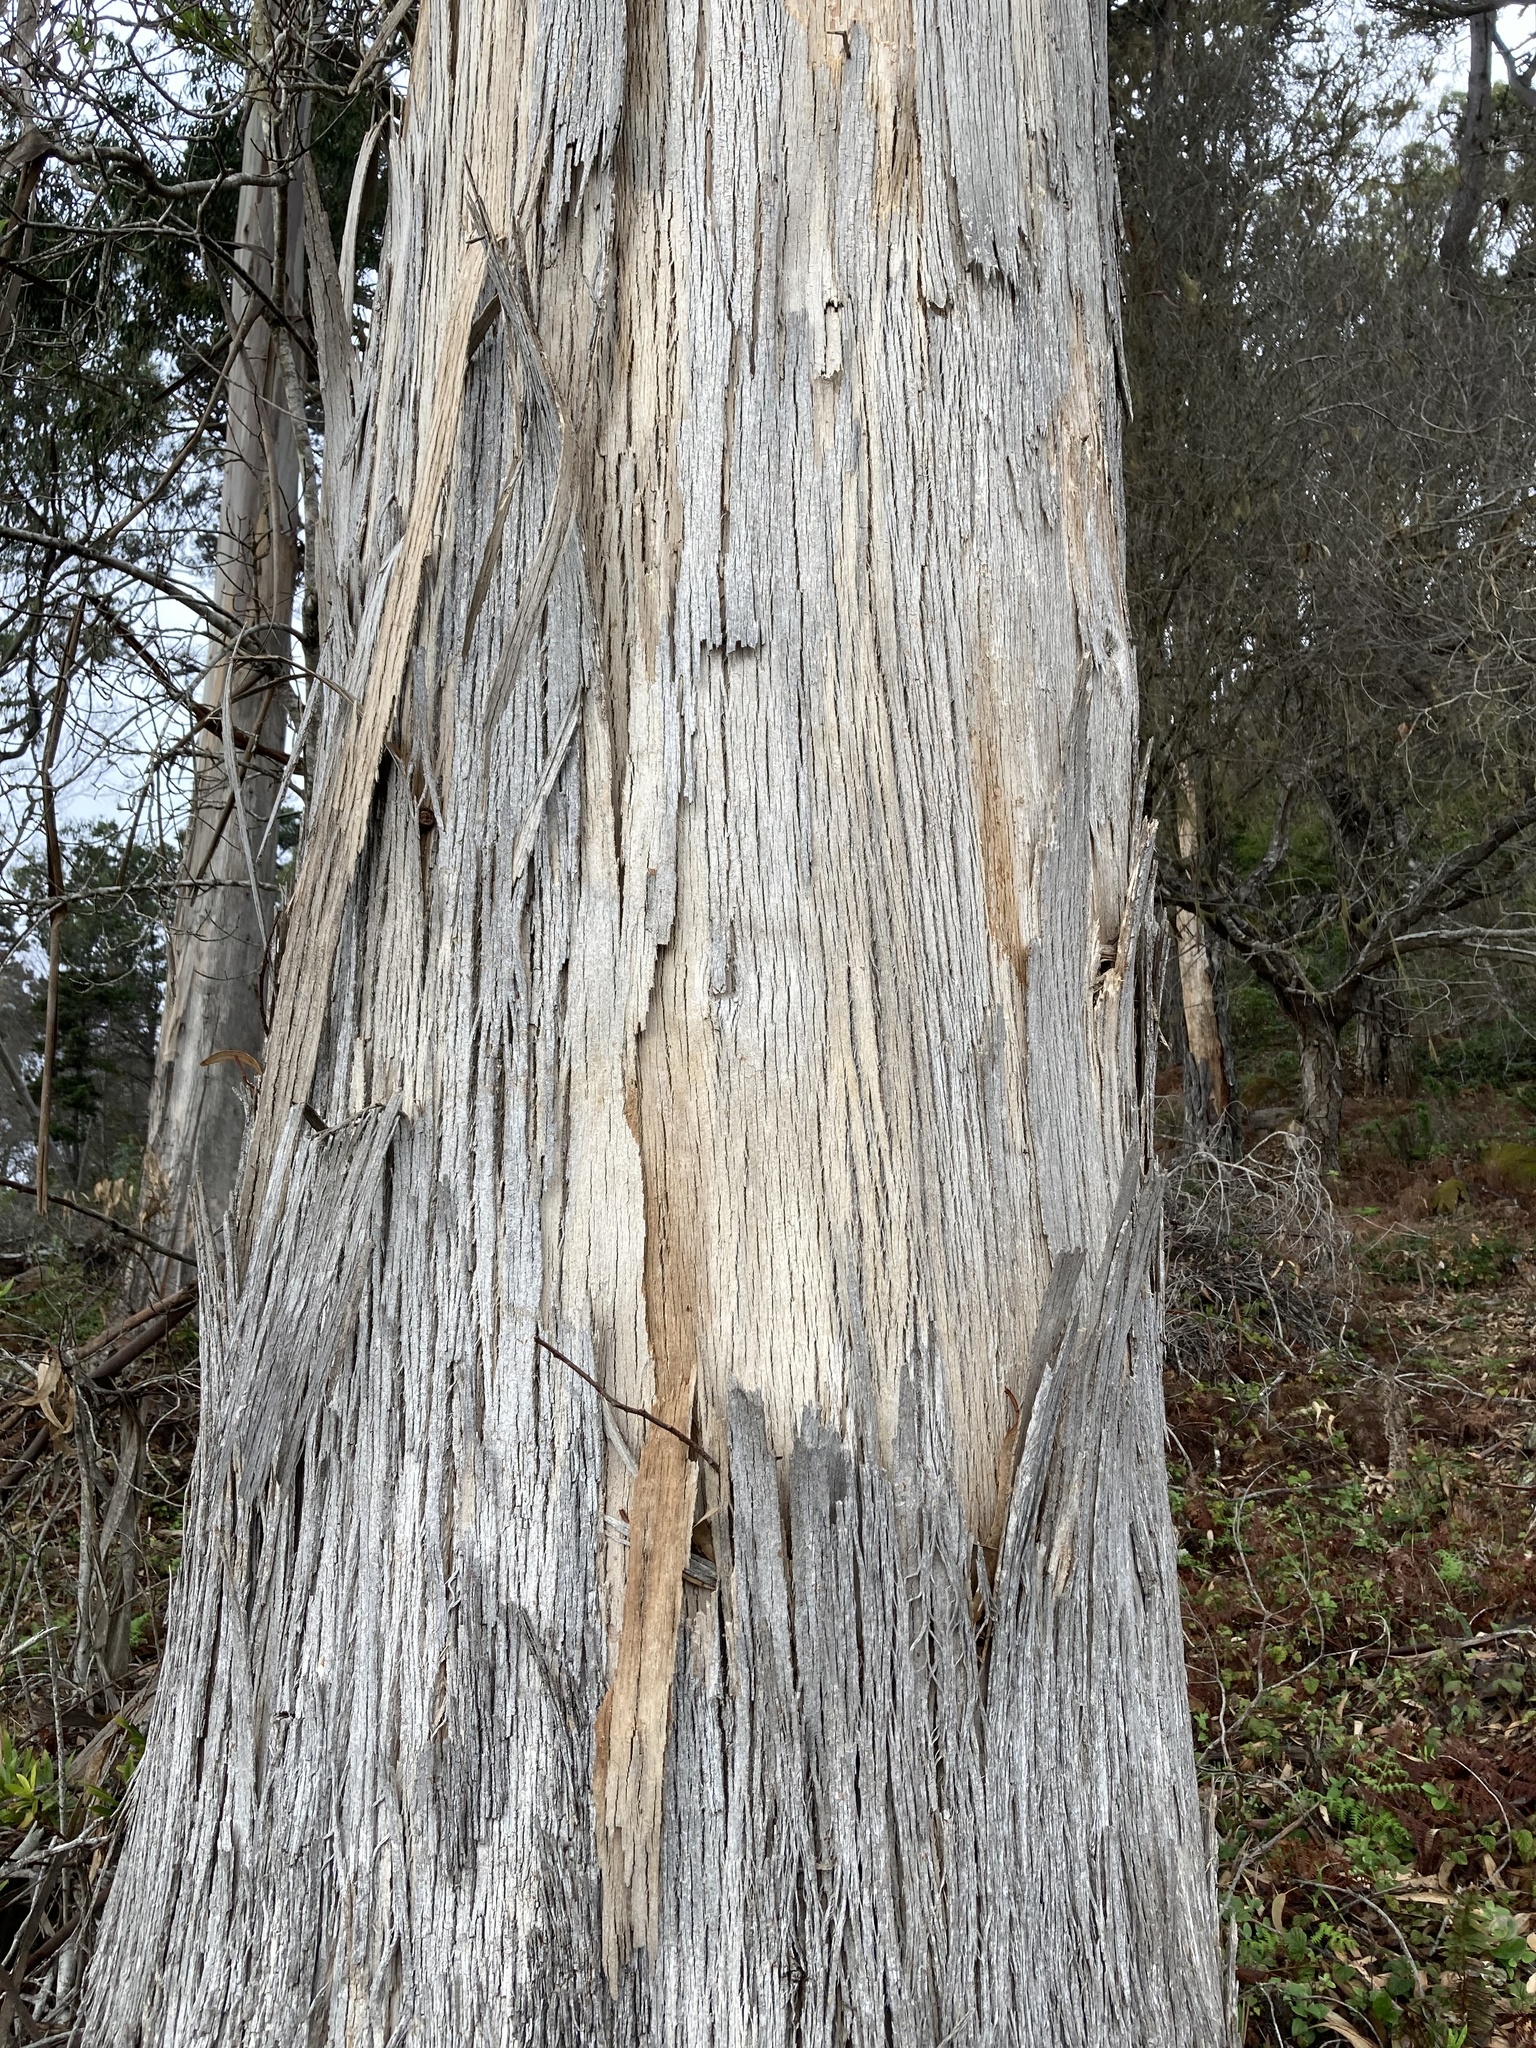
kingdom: Plantae
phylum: Tracheophyta
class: Magnoliopsida
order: Myrtales
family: Myrtaceae
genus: Eucalyptus
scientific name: Eucalyptus globulus
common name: Southern blue-gum
